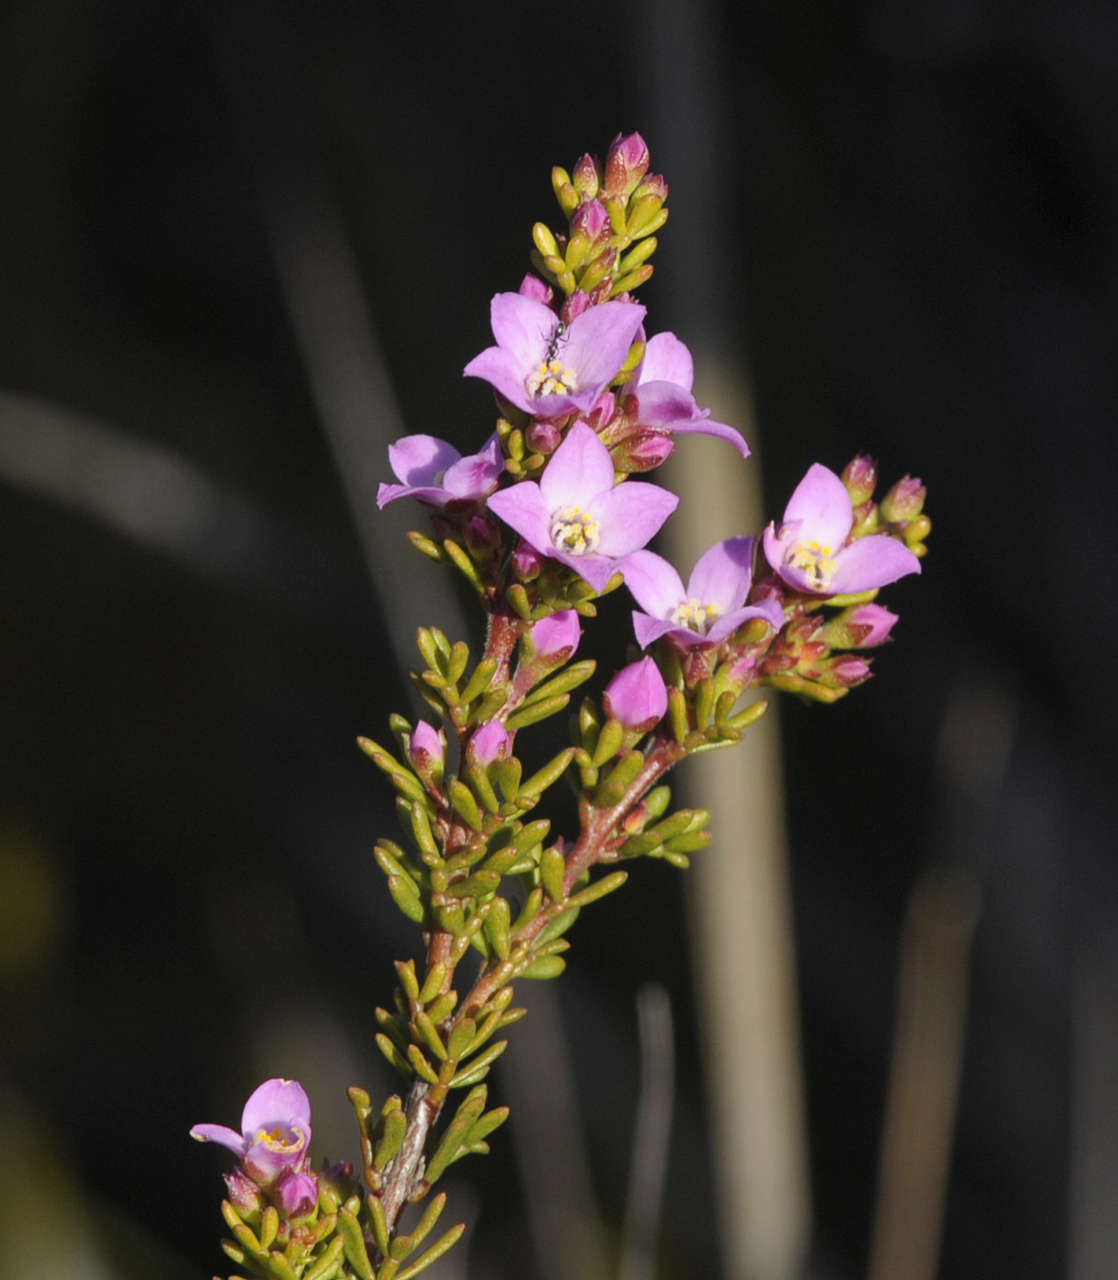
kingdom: Plantae
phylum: Tracheophyta
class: Magnoliopsida
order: Sapindales
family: Rutaceae
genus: Boronia
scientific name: Boronia pilosa
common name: Hairy boronia
